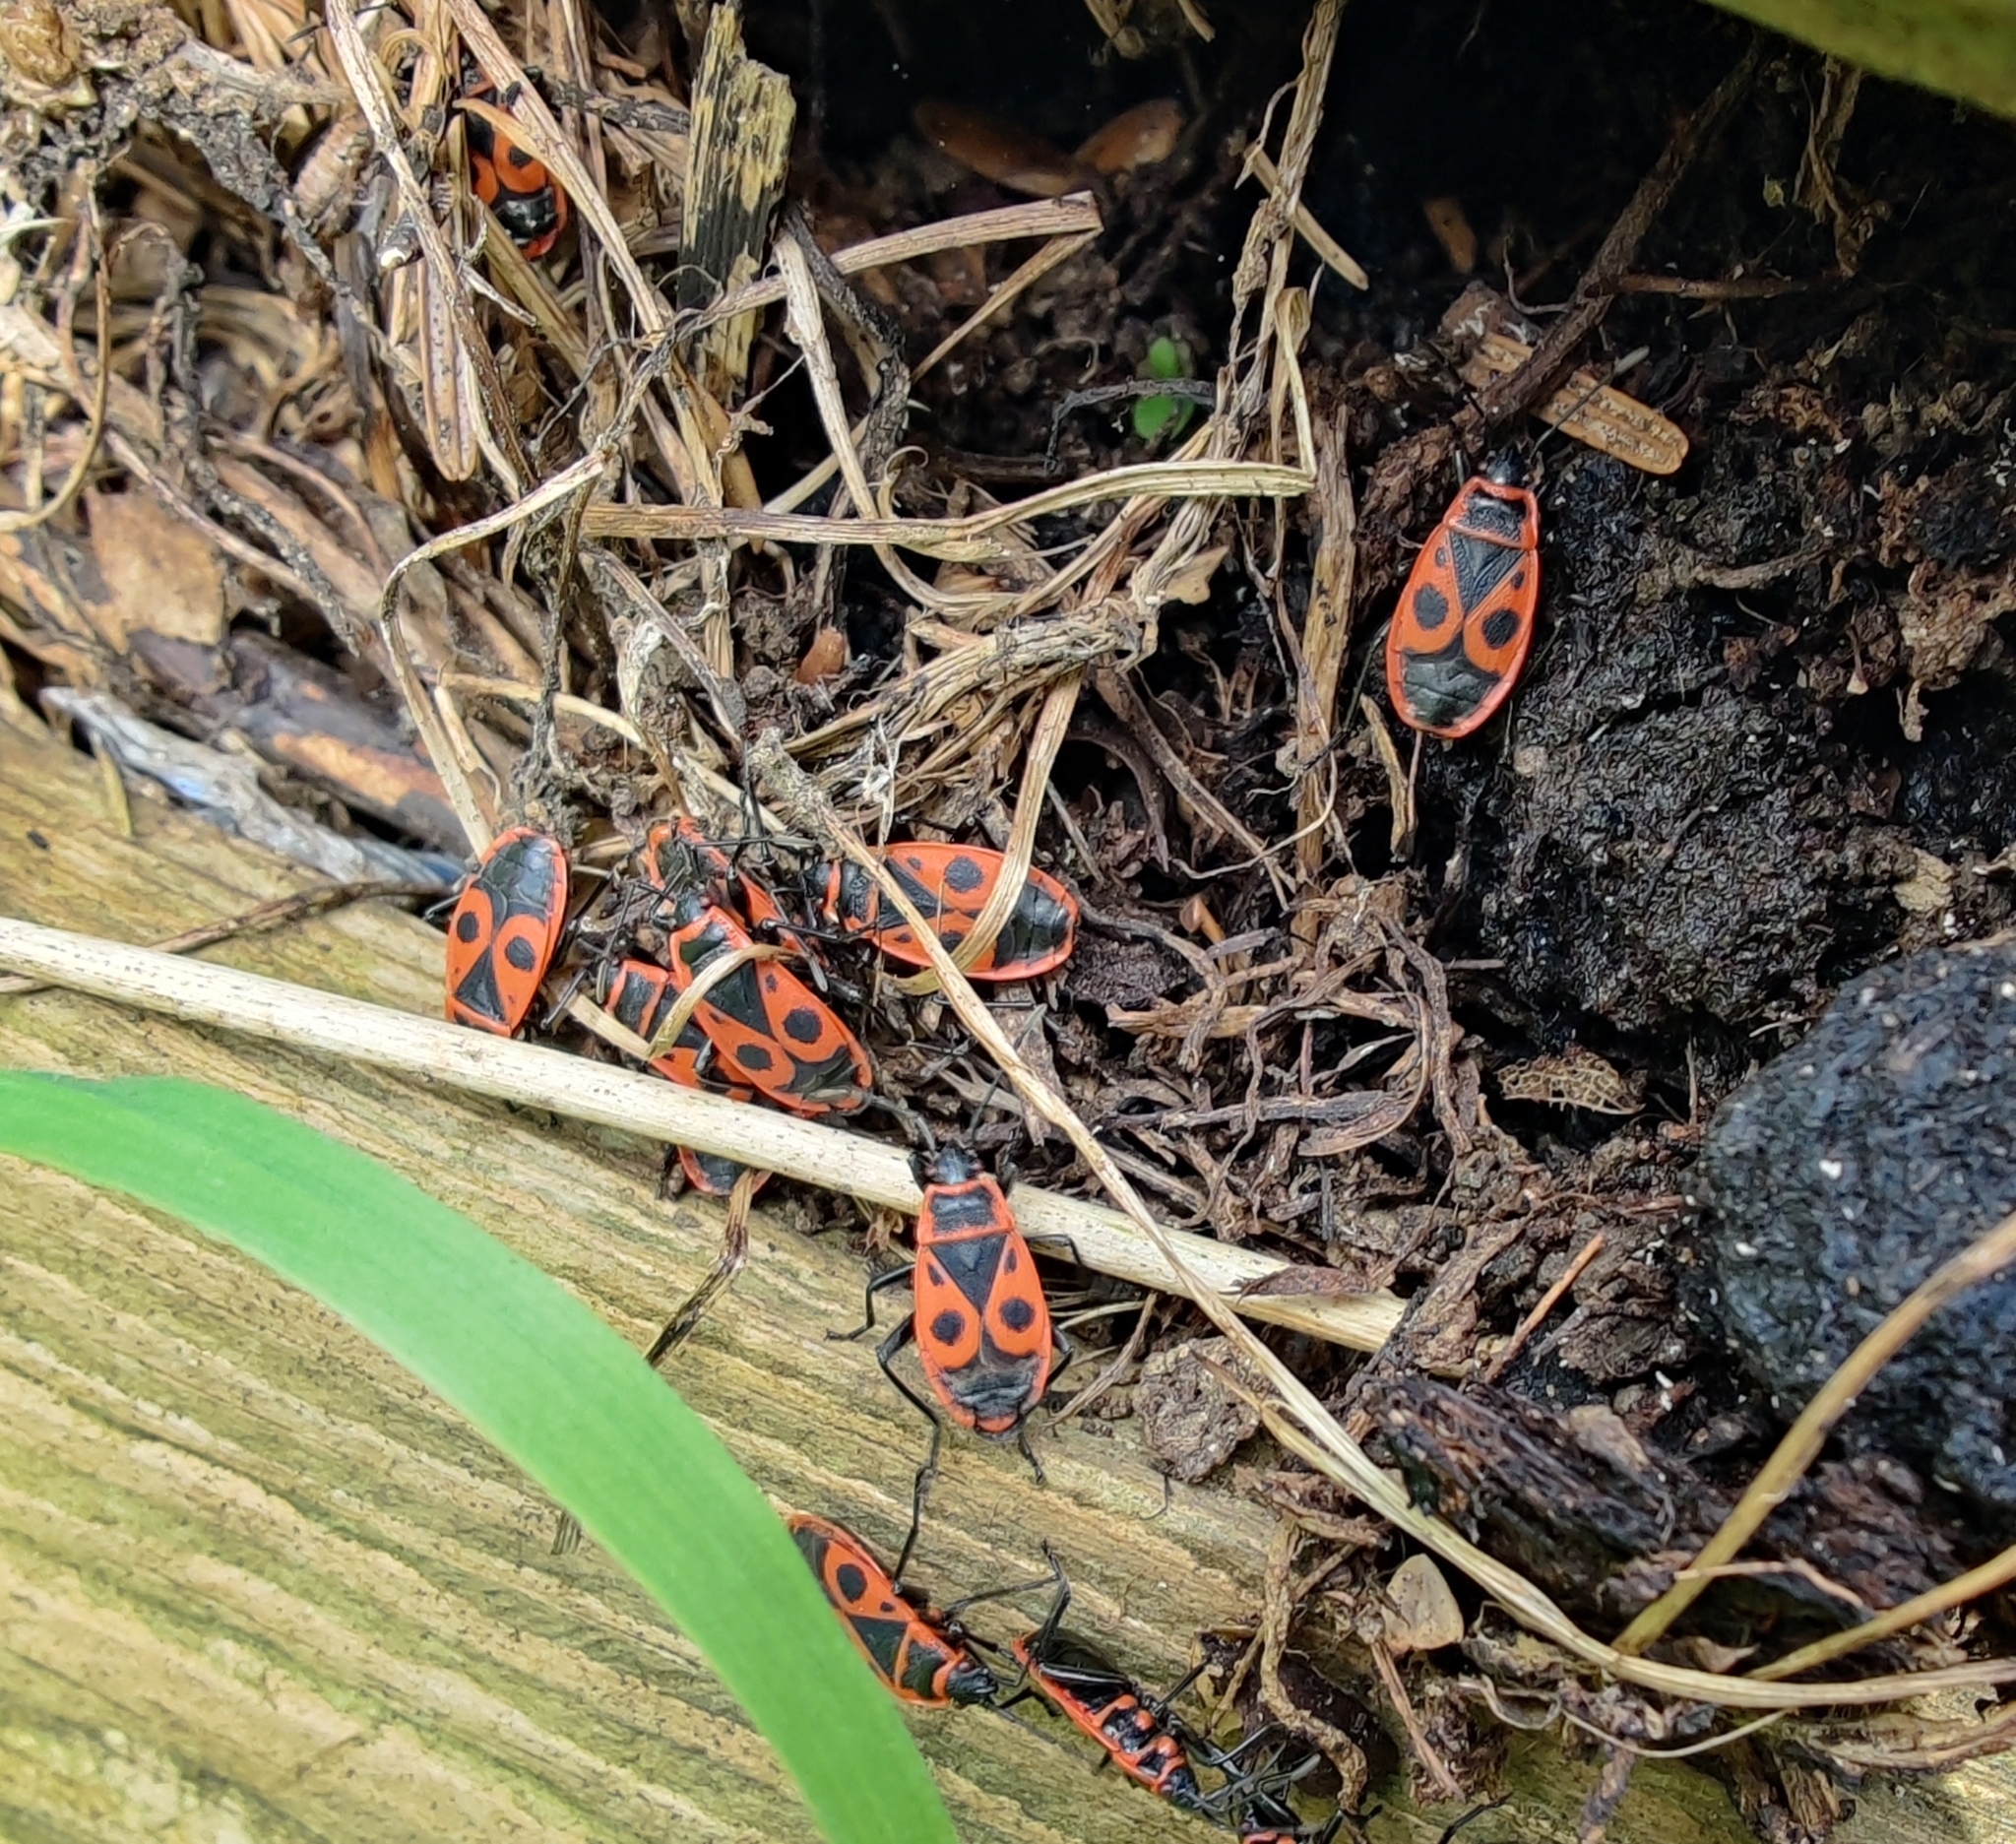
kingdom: Animalia
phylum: Arthropoda
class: Insecta
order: Hemiptera
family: Pyrrhocoridae
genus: Pyrrhocoris
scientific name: Pyrrhocoris apterus
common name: Firebug
